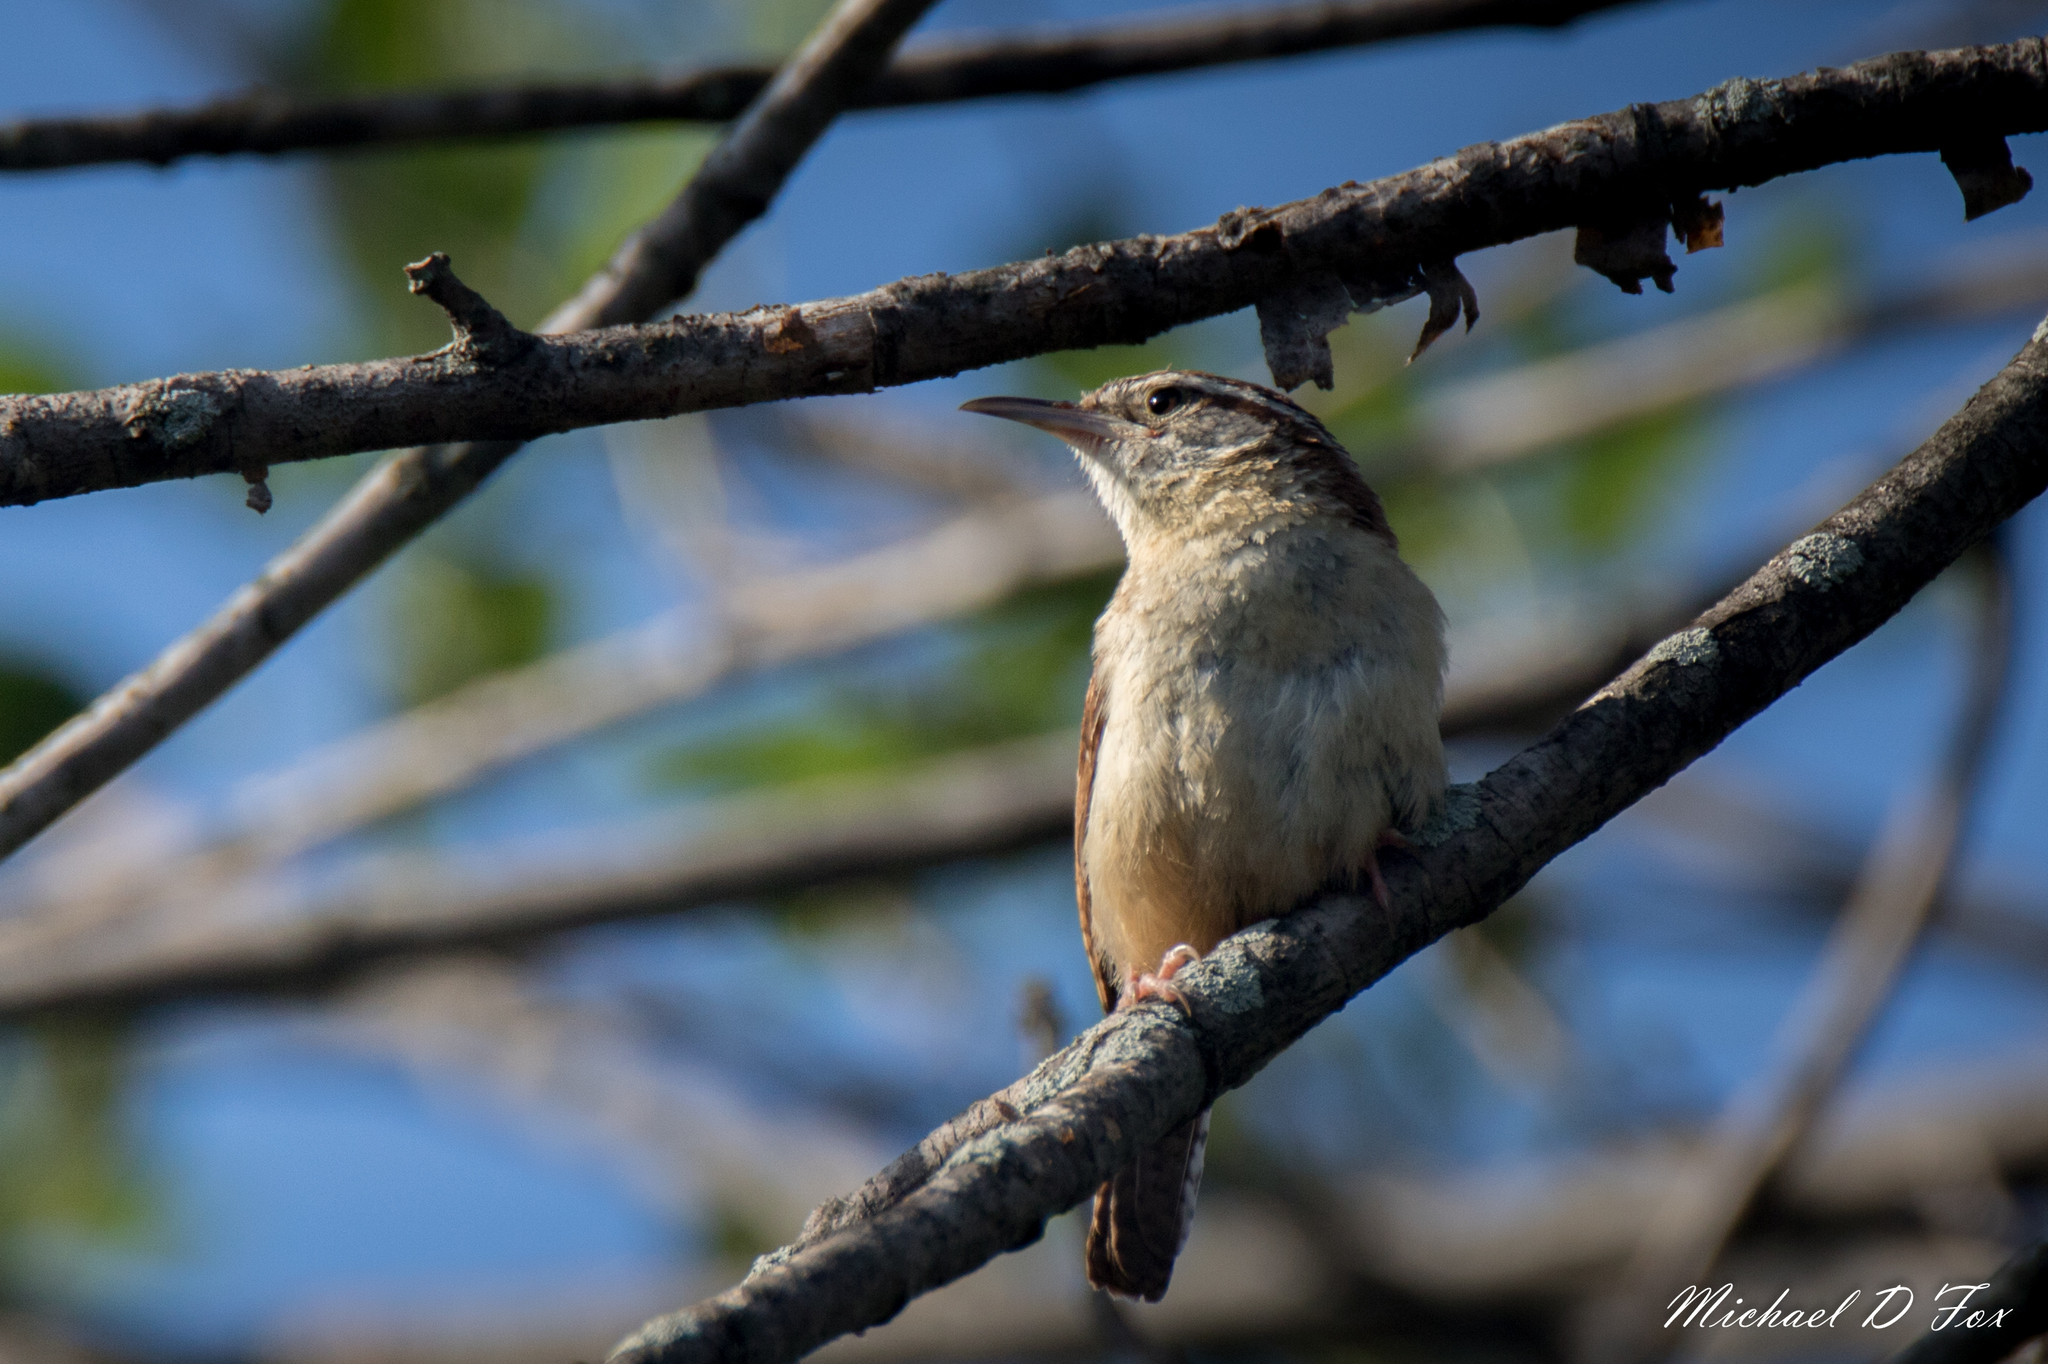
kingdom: Animalia
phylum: Chordata
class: Aves
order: Passeriformes
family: Troglodytidae
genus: Thryothorus
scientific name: Thryothorus ludovicianus
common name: Carolina wren
